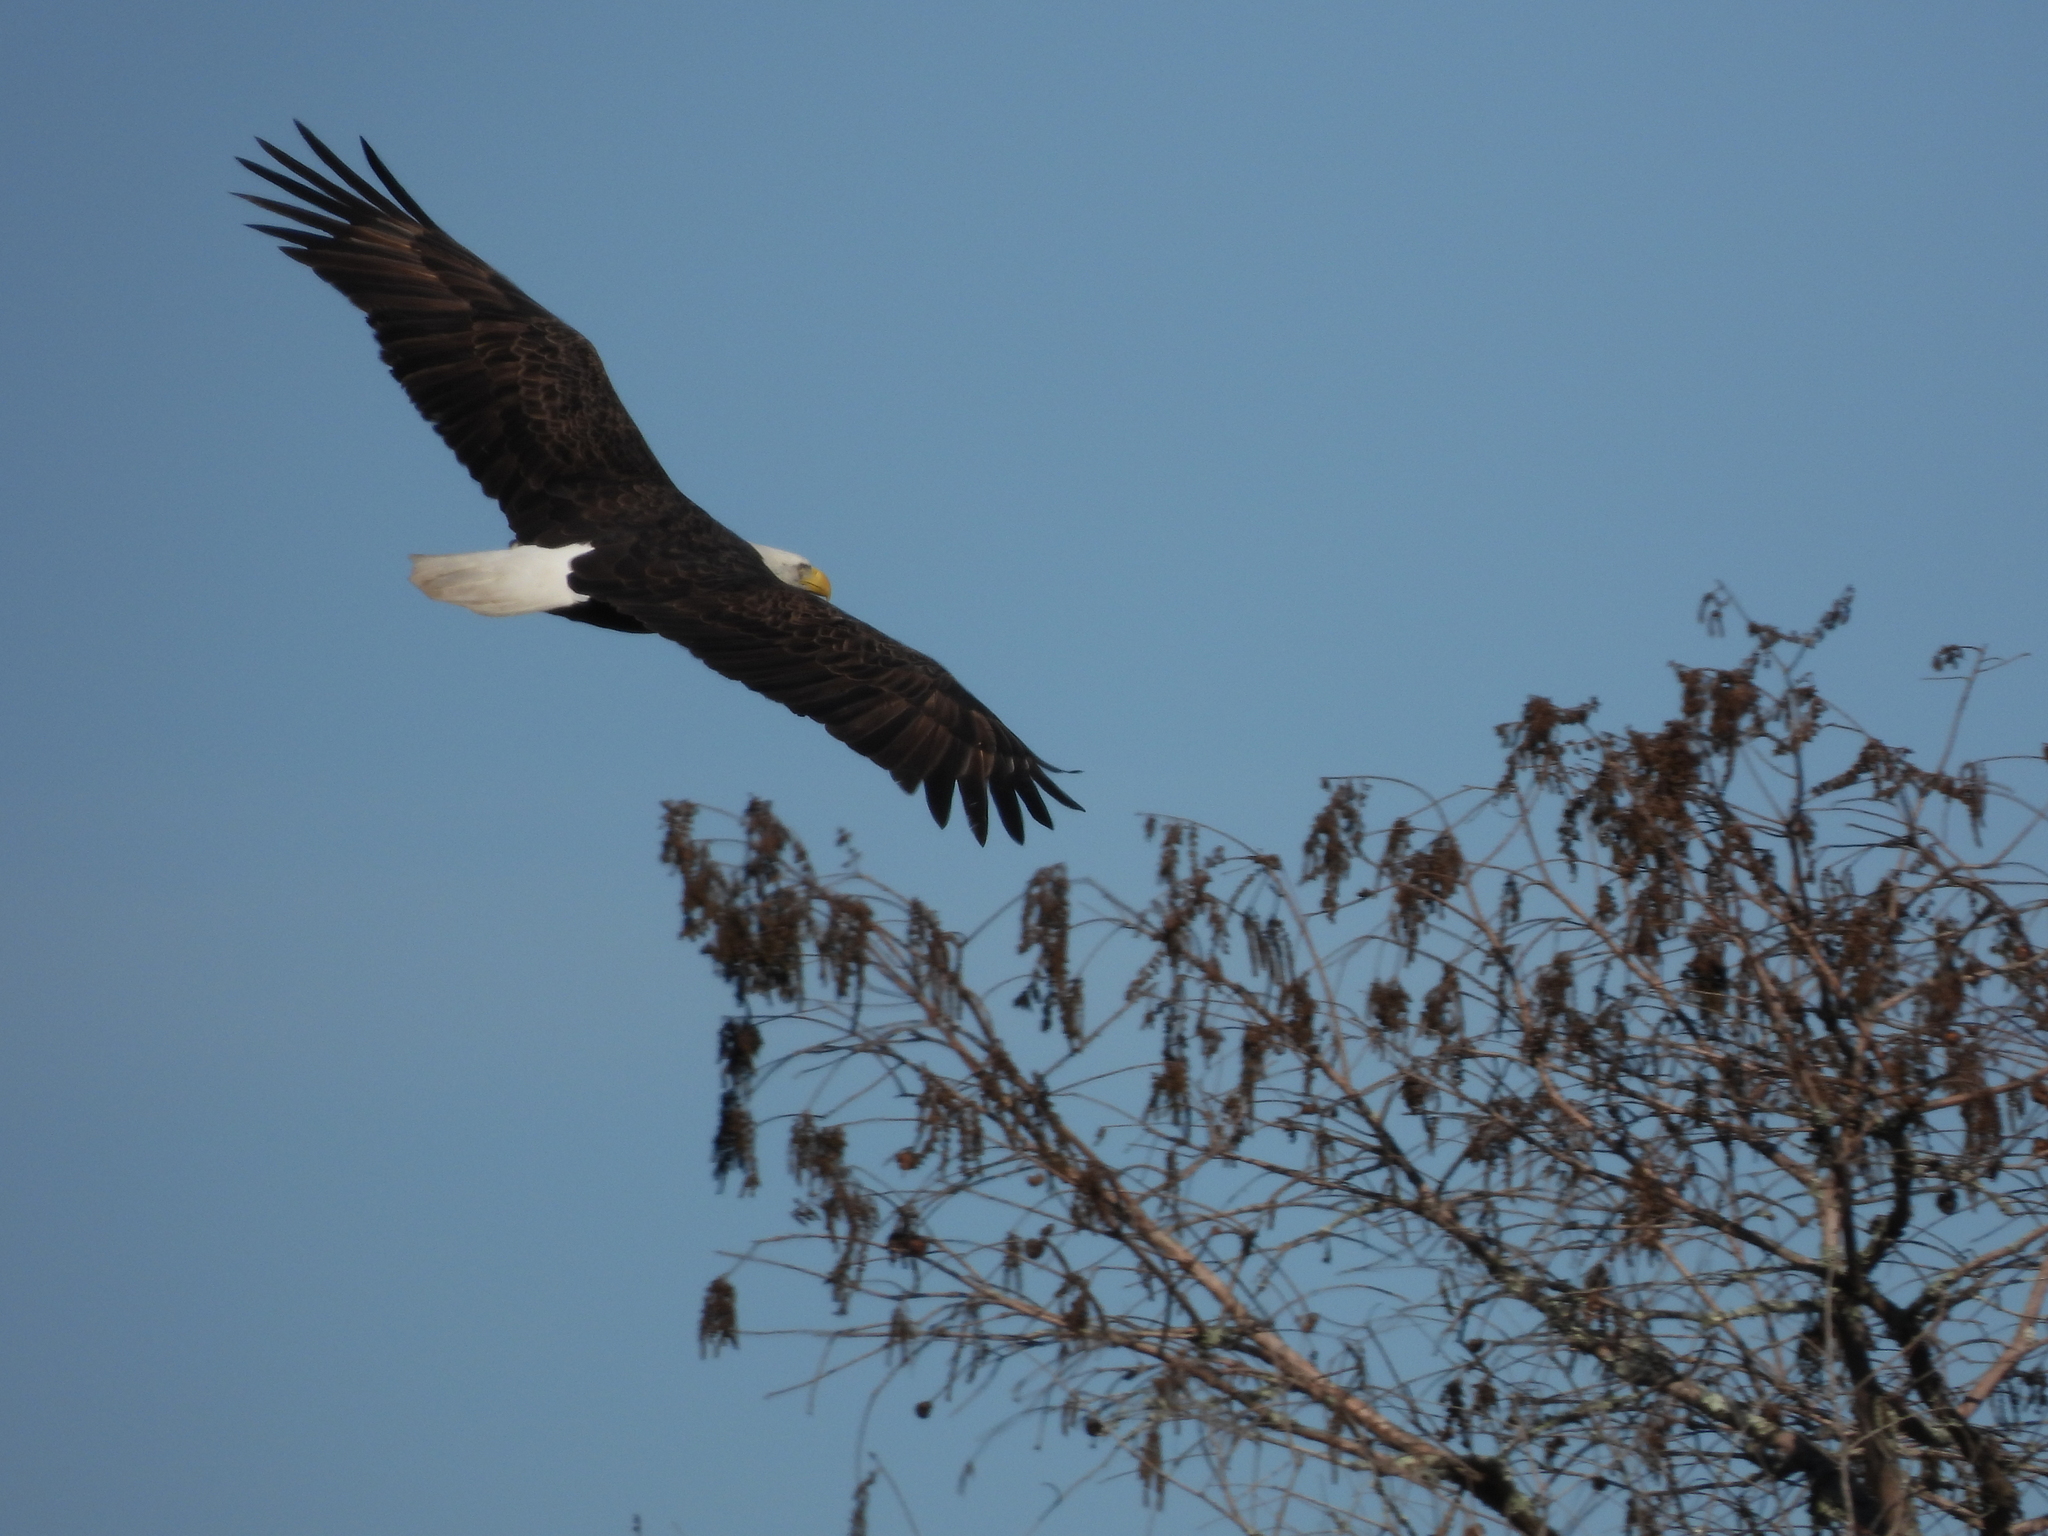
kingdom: Animalia
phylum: Chordata
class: Aves
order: Accipitriformes
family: Accipitridae
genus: Haliaeetus
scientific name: Haliaeetus leucocephalus
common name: Bald eagle
